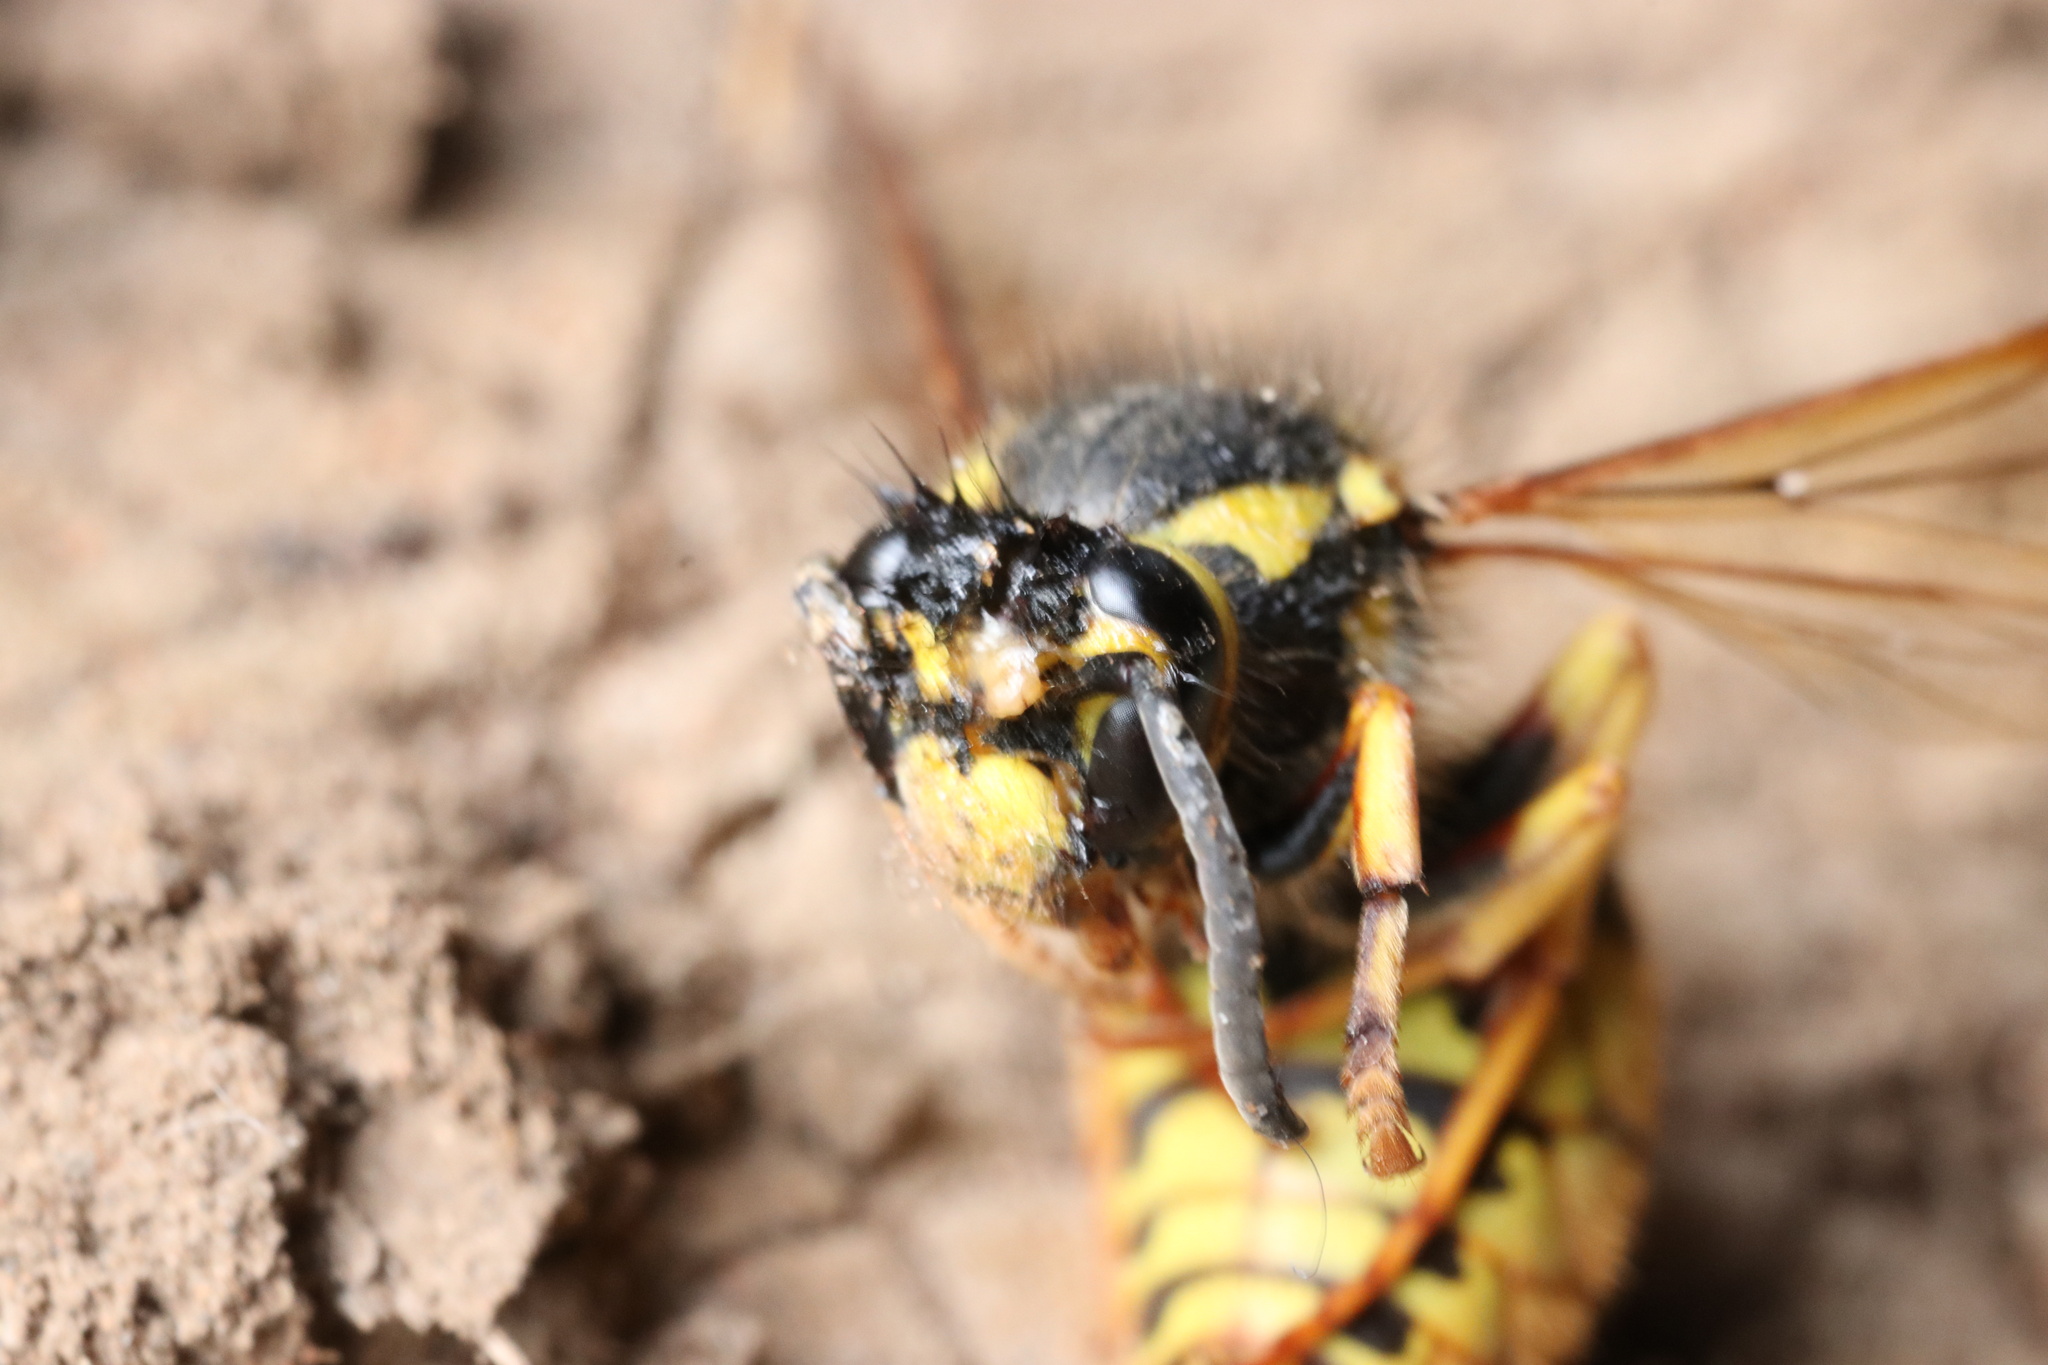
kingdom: Animalia
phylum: Arthropoda
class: Insecta
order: Hymenoptera
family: Vespidae
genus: Vespula
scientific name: Vespula germanica
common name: German wasp
